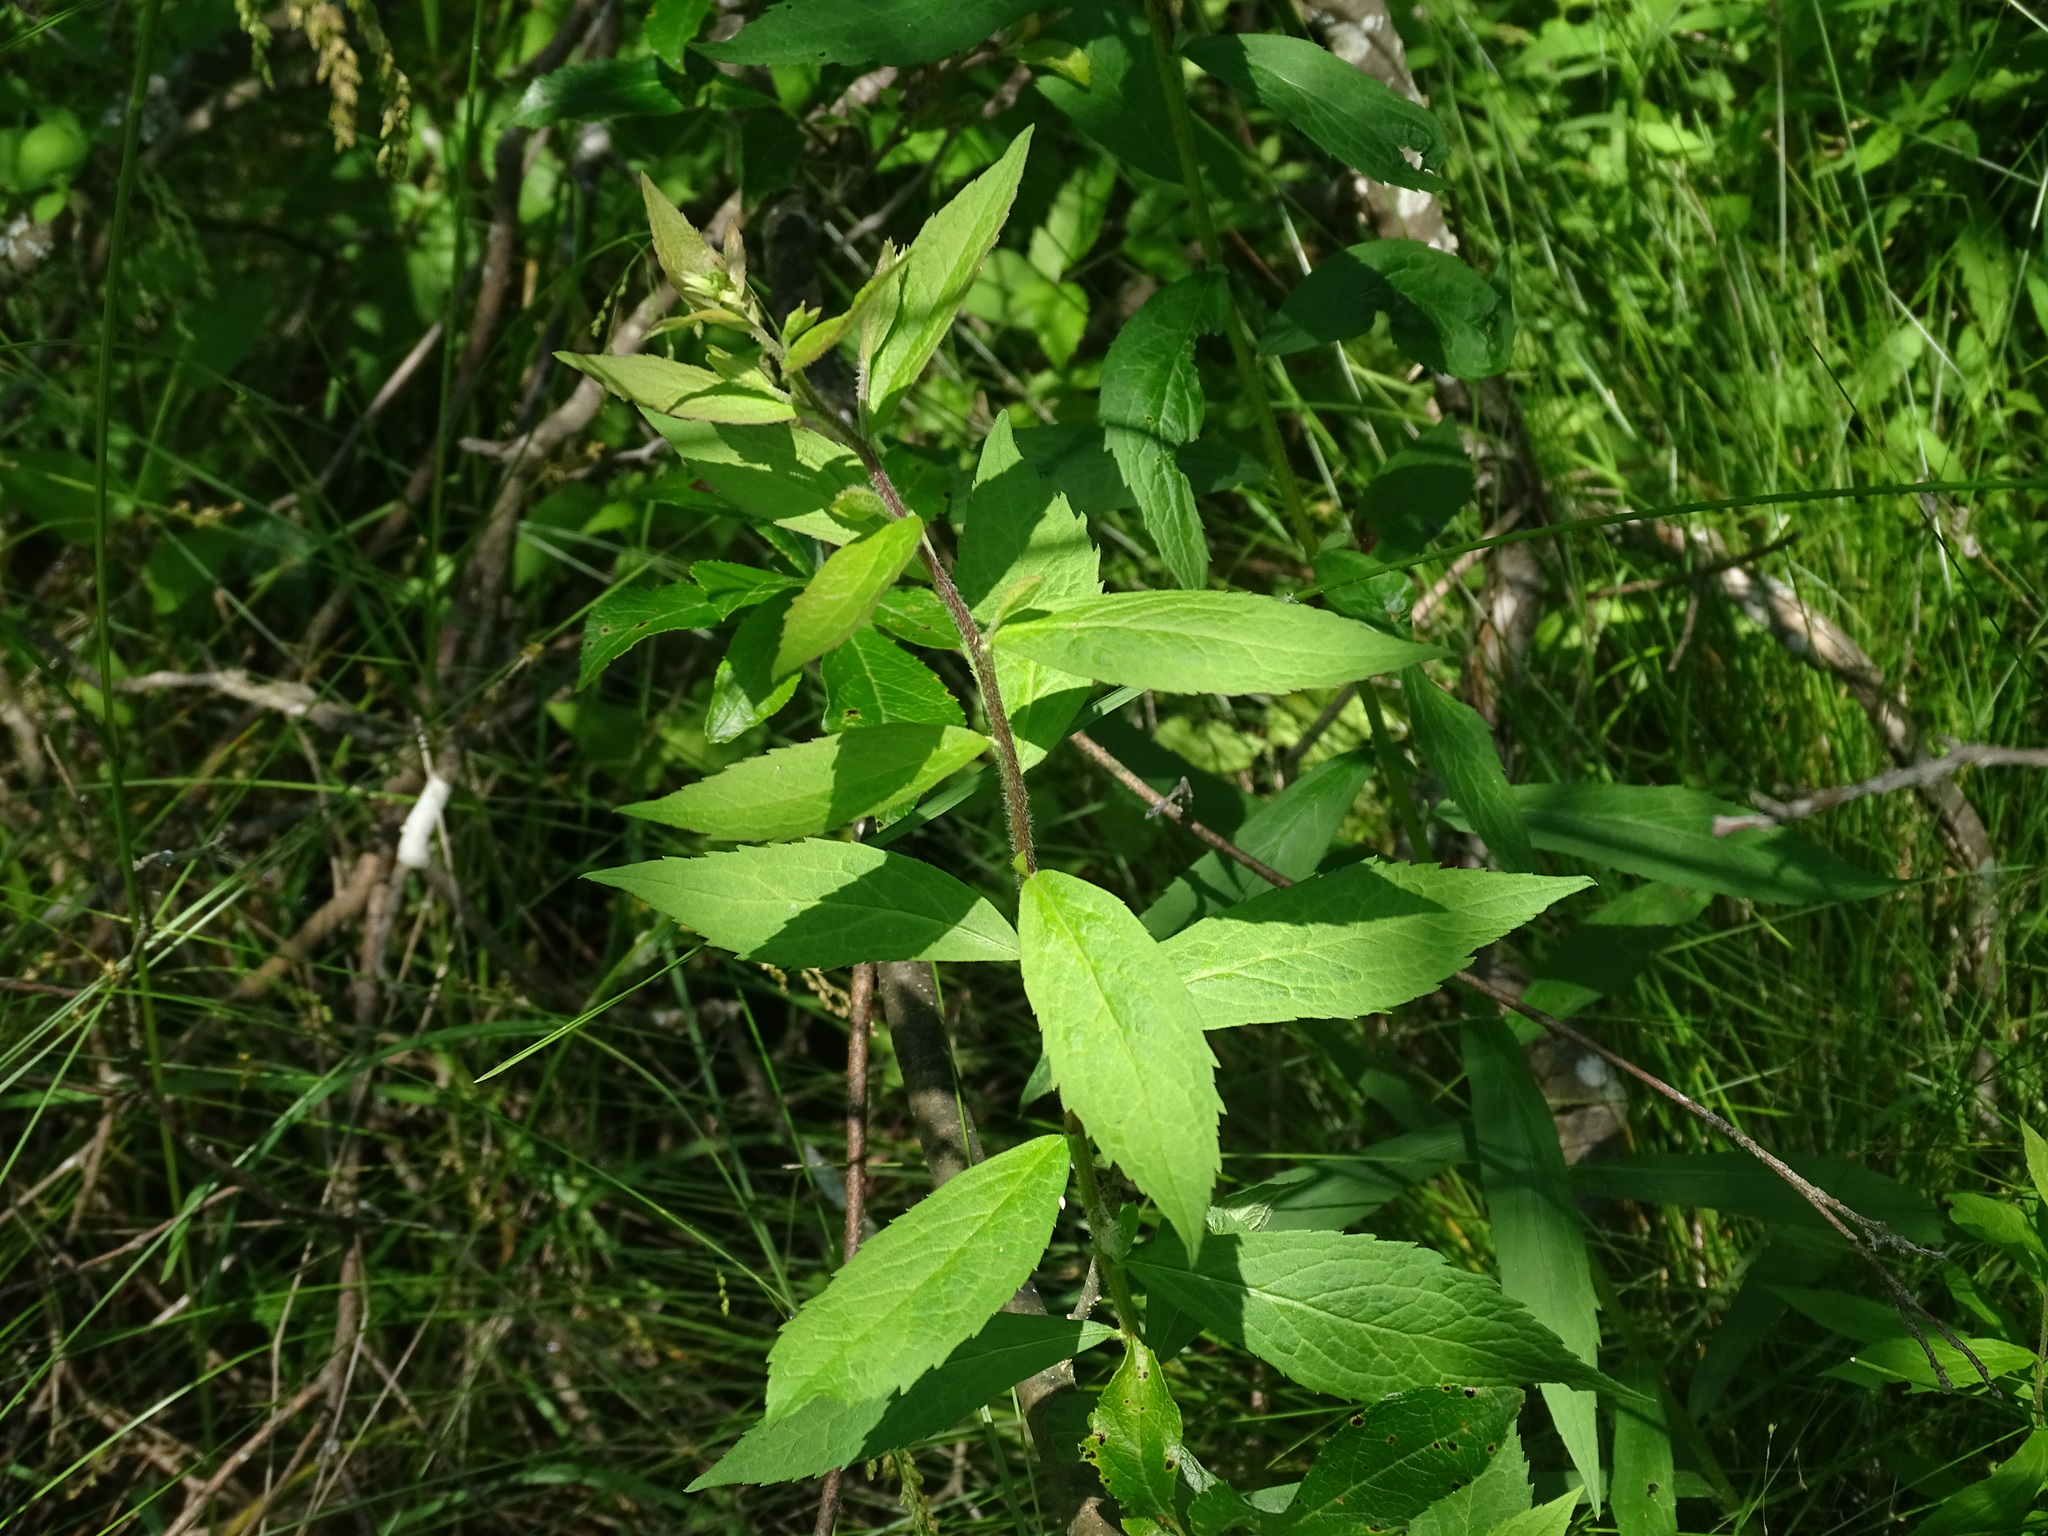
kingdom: Plantae
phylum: Tracheophyta
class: Magnoliopsida
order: Asterales
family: Asteraceae
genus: Solidago
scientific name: Solidago rugosa
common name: Rough-stemmed goldenrod
